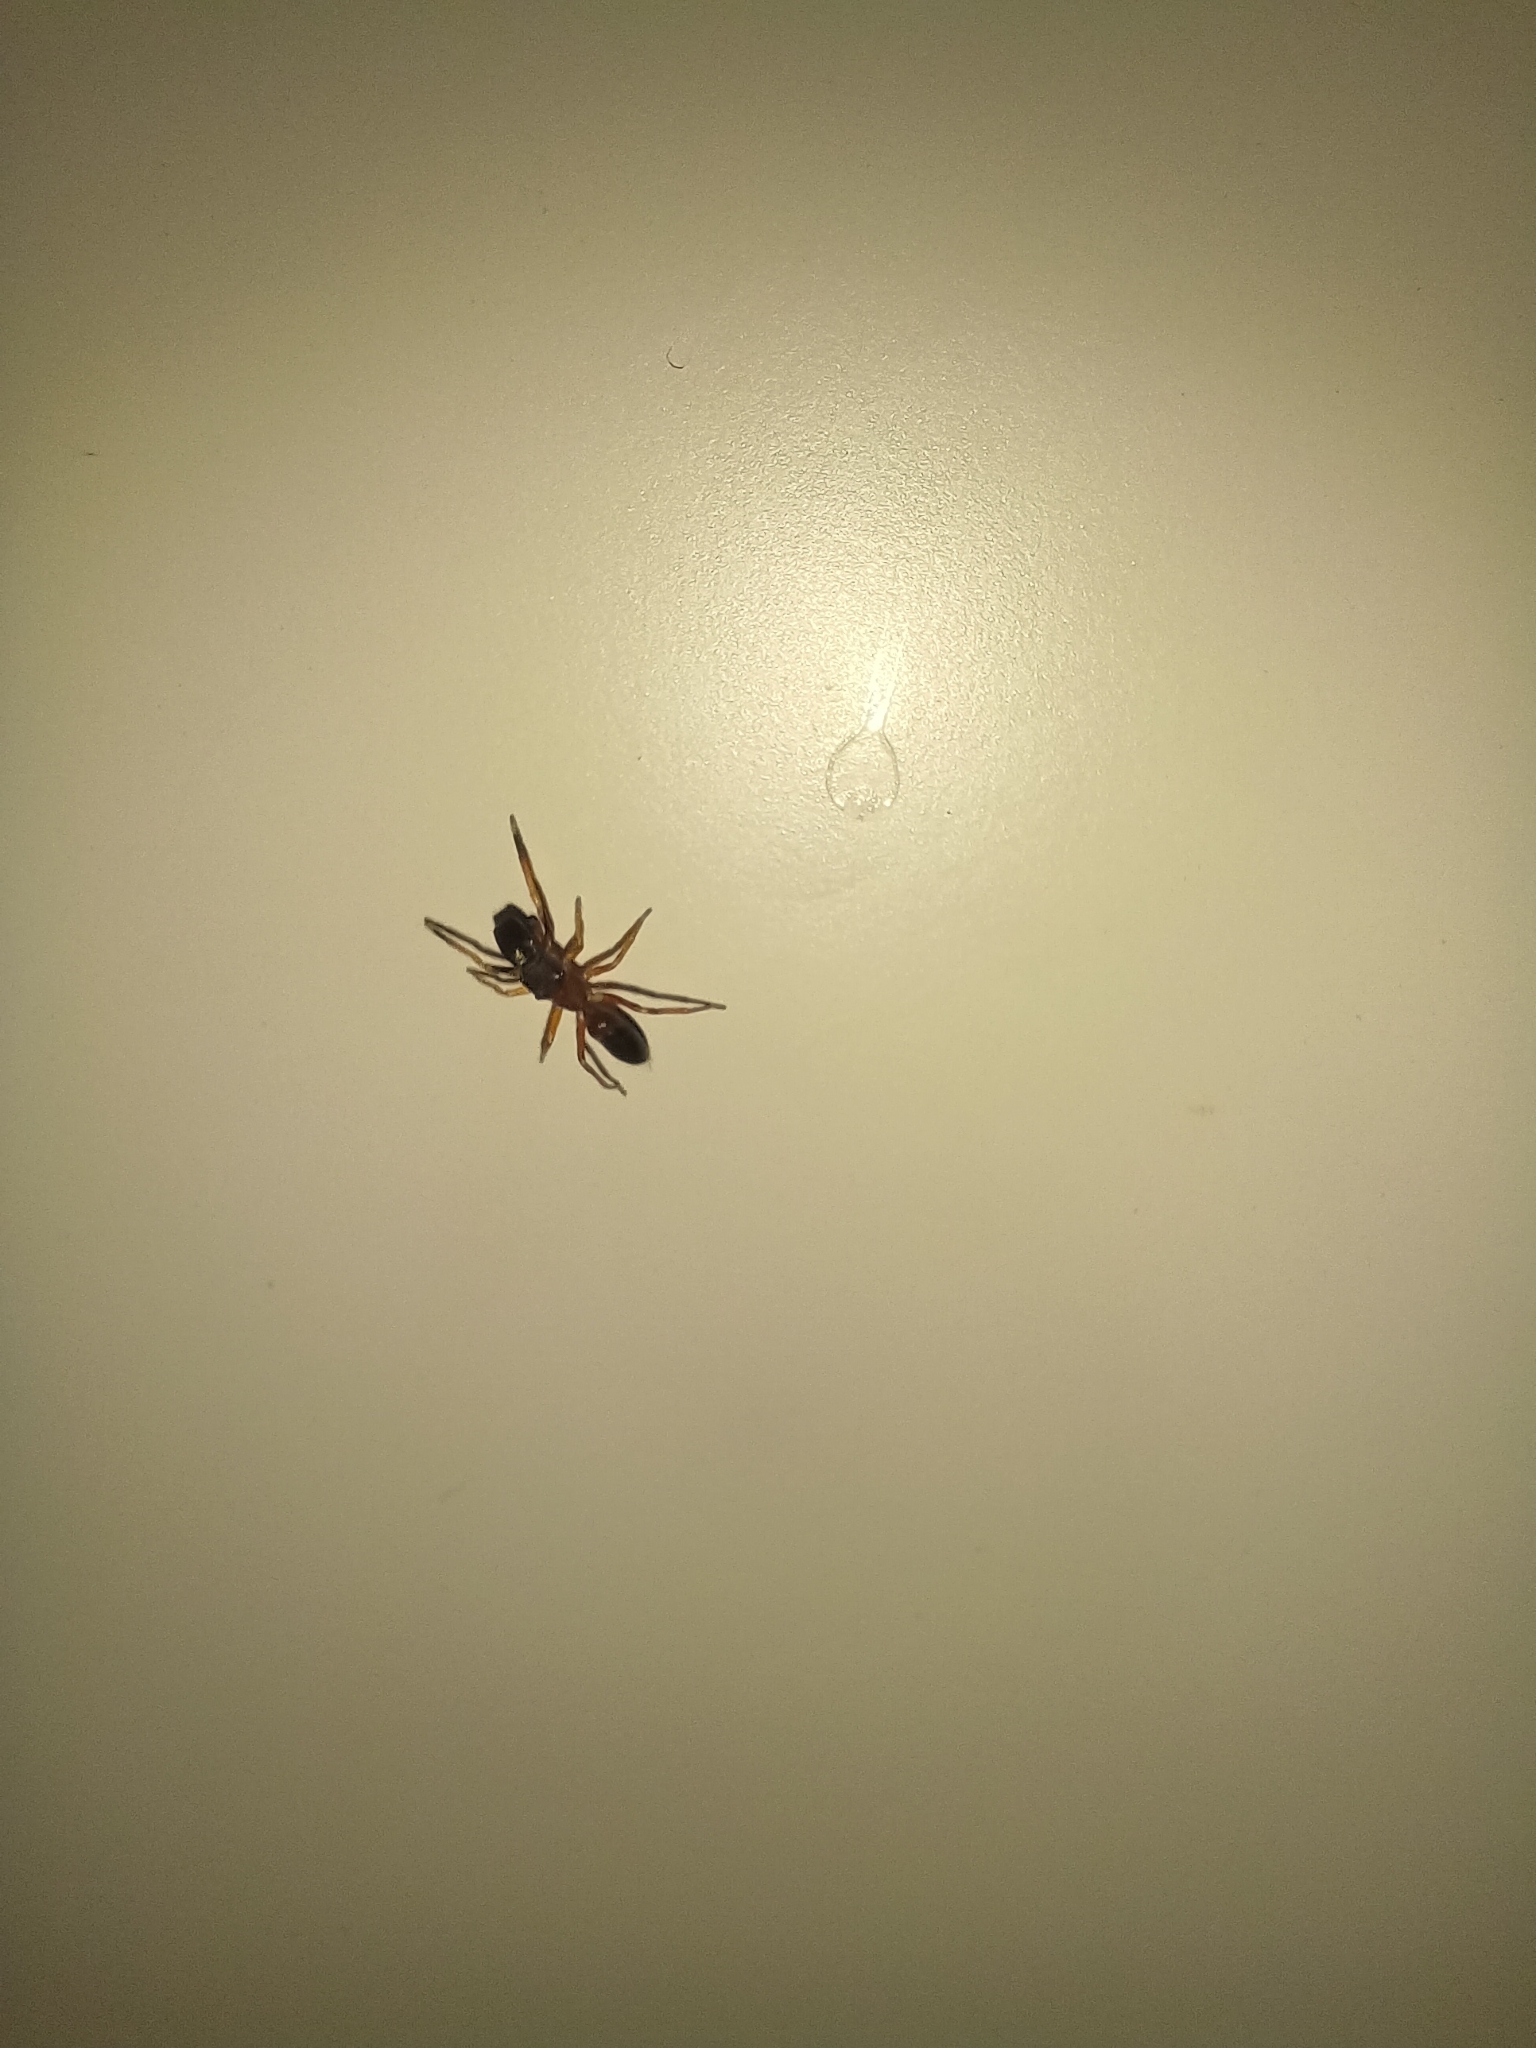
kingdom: Animalia
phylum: Arthropoda
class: Arachnida
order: Araneae
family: Salticidae
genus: Myrmarachne
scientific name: Myrmarachne formicaria
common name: Ant mimic jumping spider
